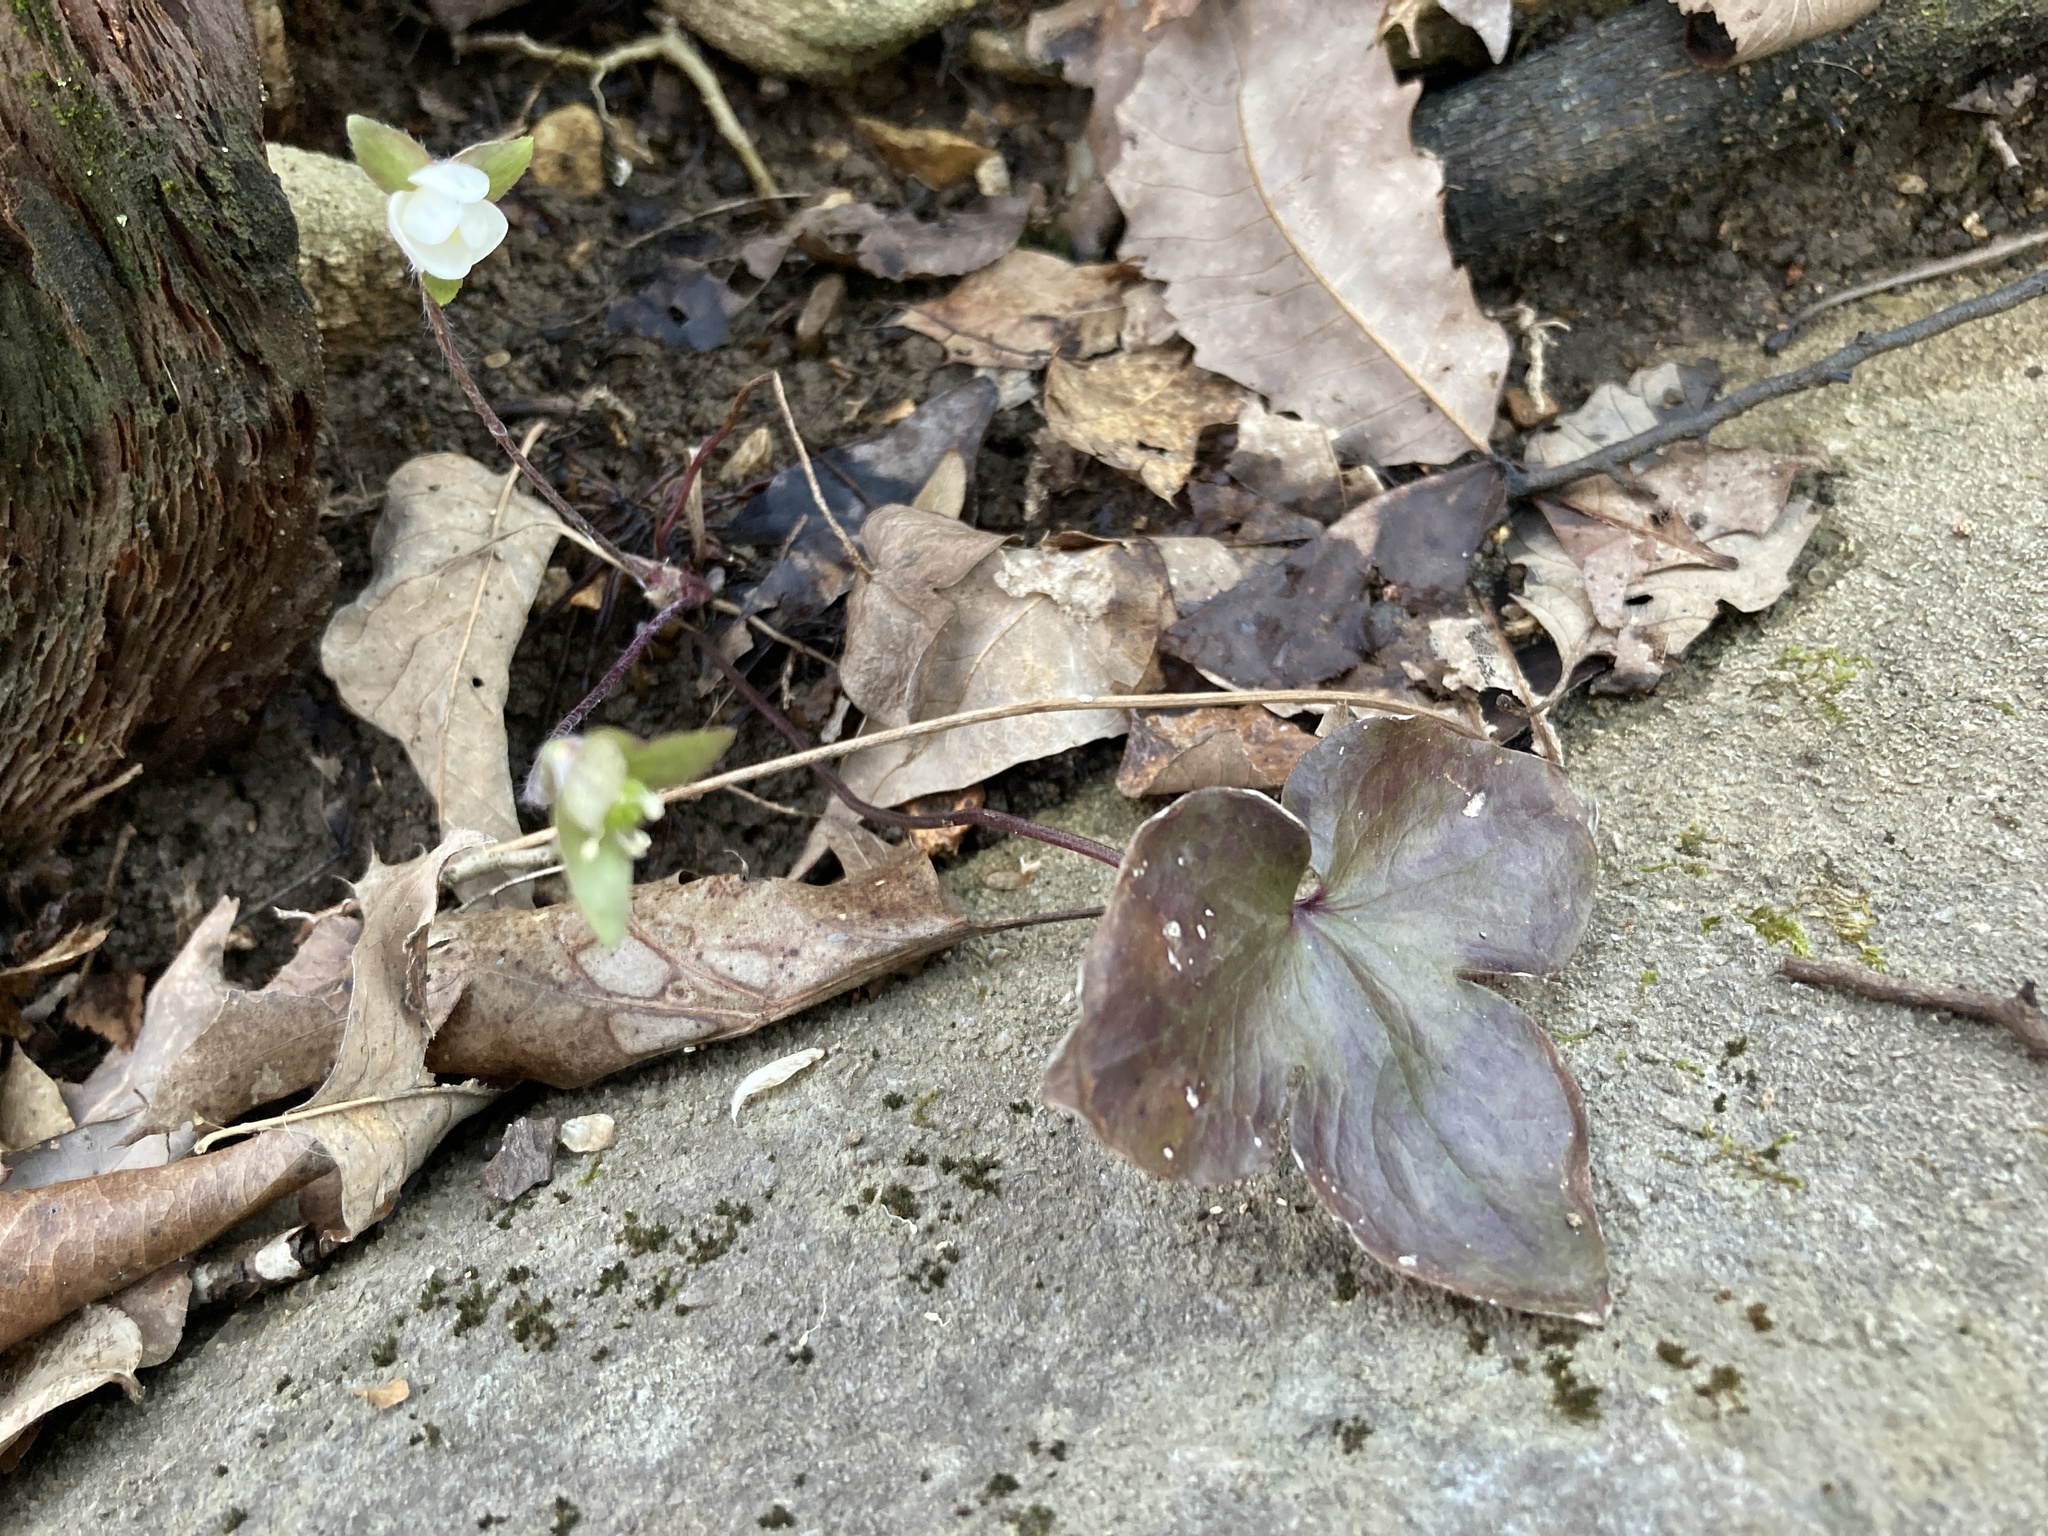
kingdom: Plantae
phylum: Tracheophyta
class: Magnoliopsida
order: Ranunculales
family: Ranunculaceae
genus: Hepatica
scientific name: Hepatica acutiloba
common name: Sharp-lobed hepatica
